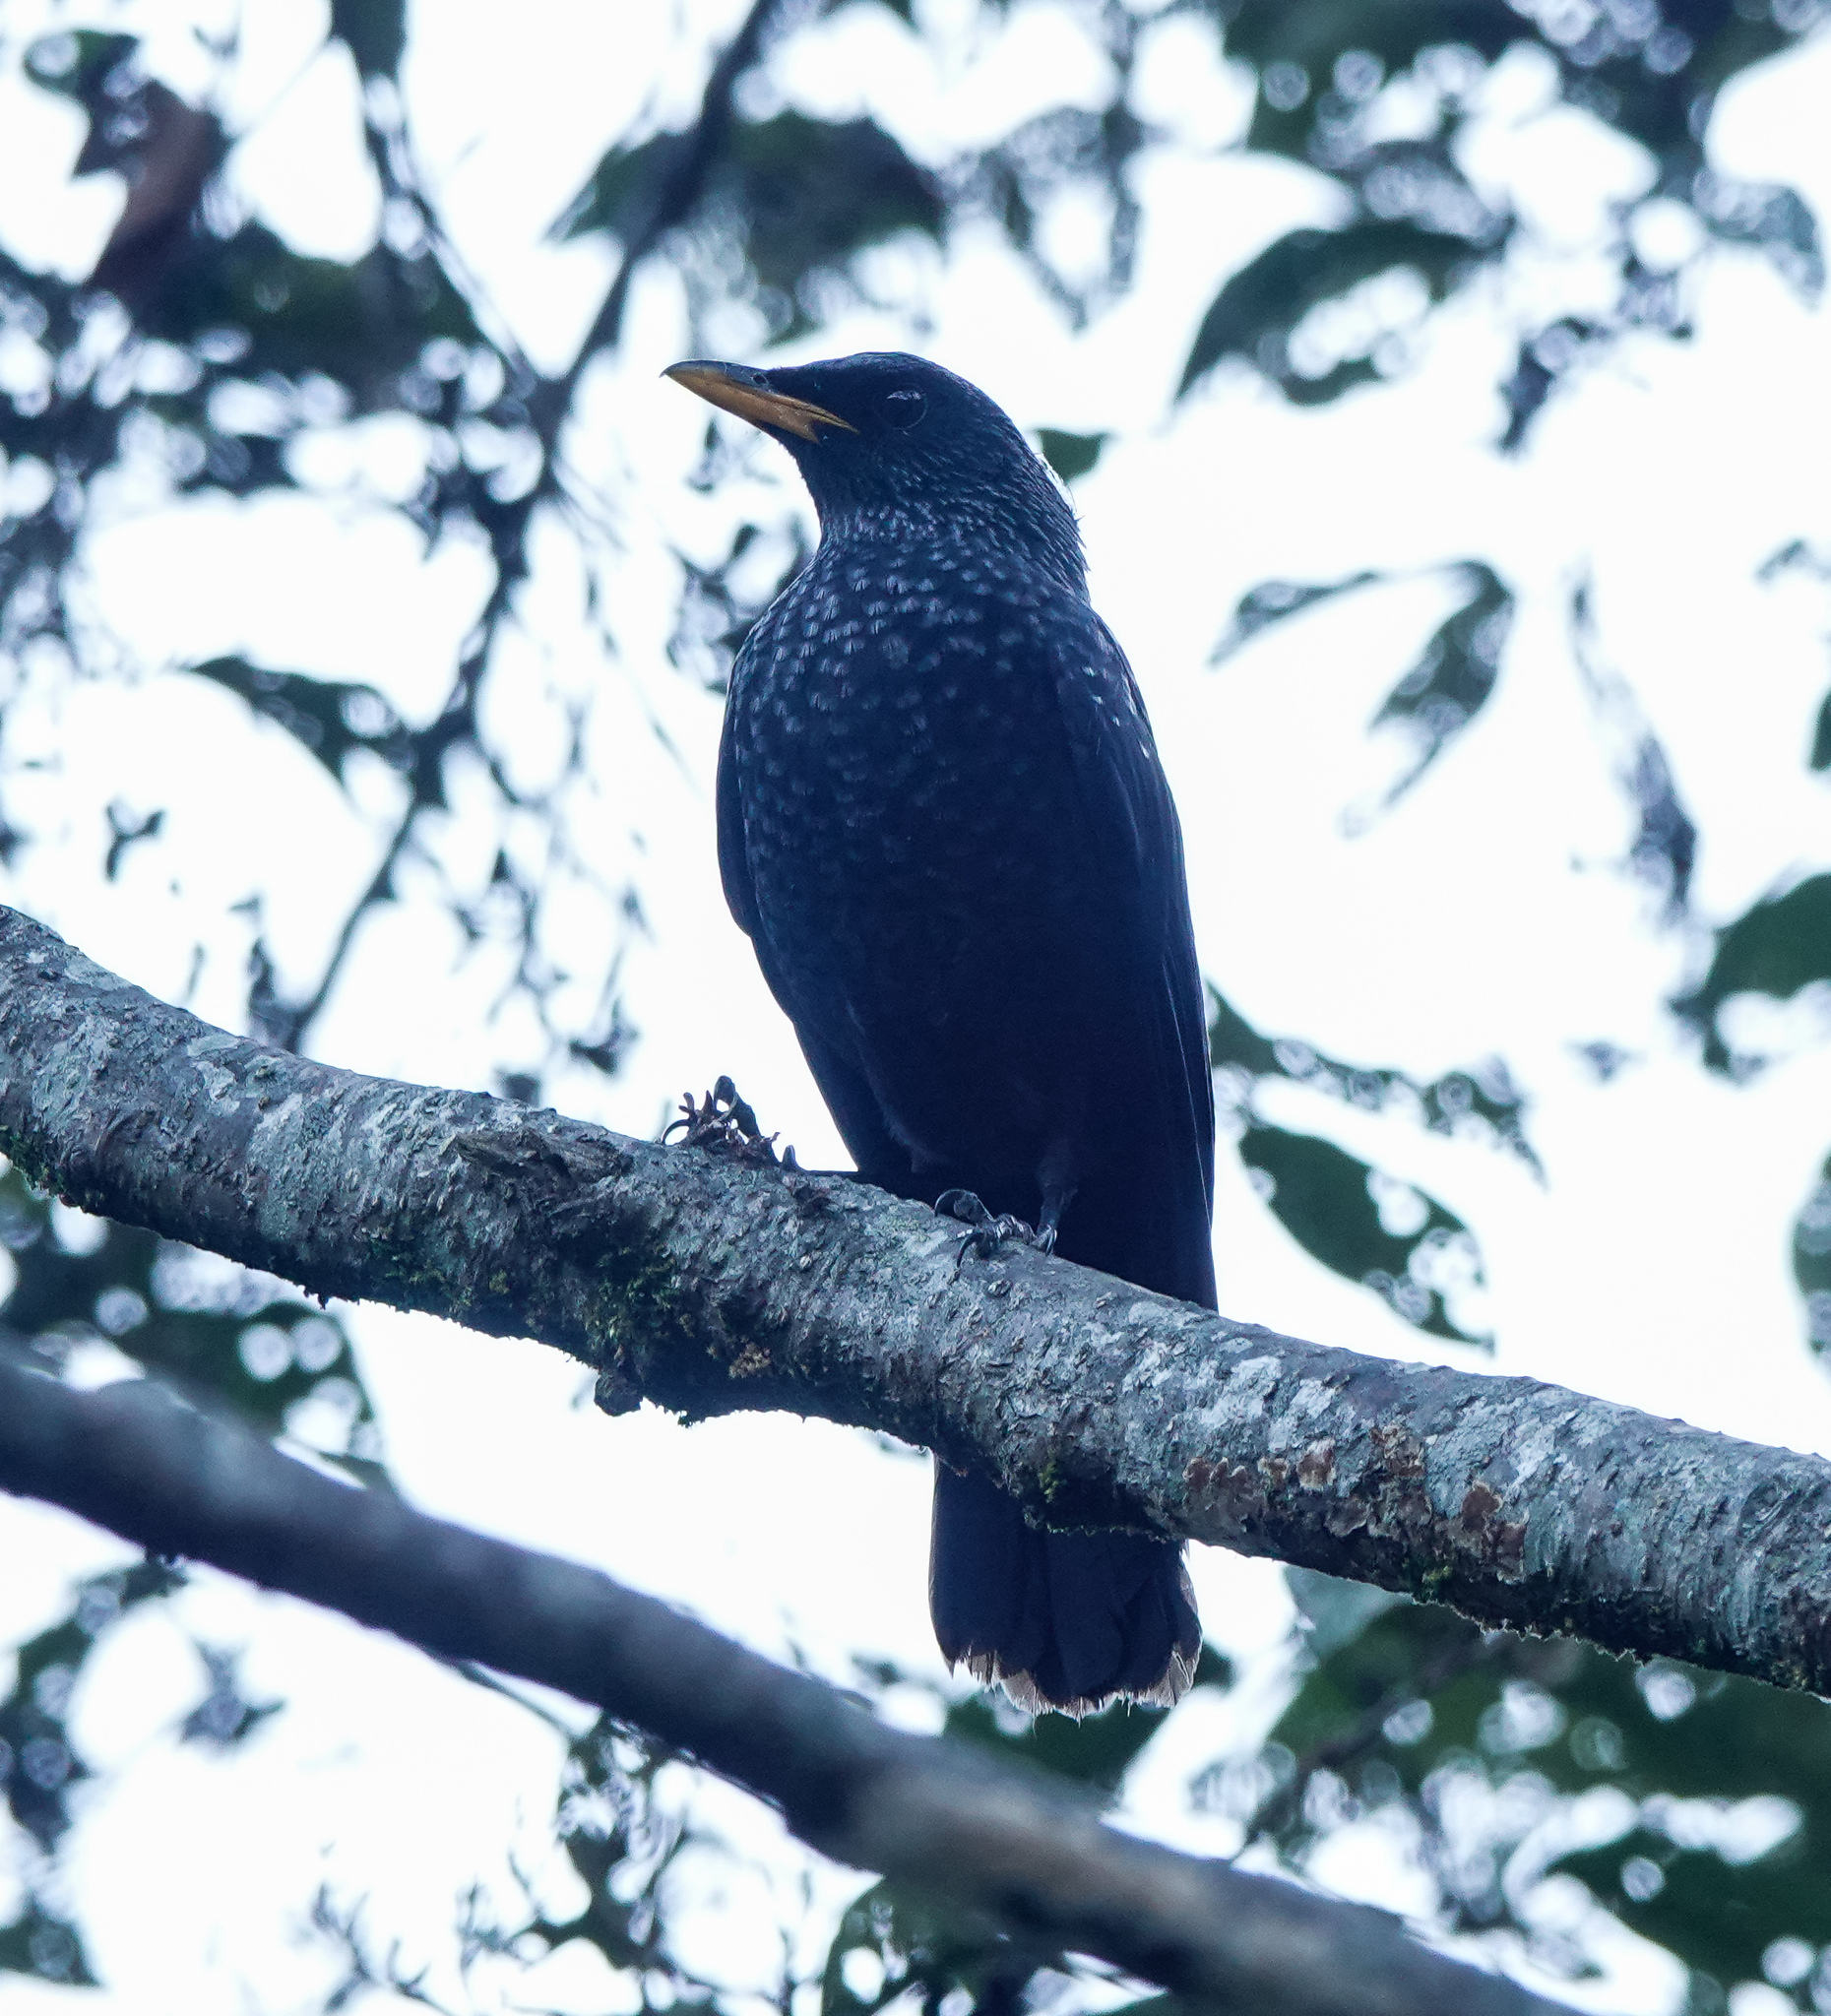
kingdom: Animalia
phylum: Chordata
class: Aves
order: Passeriformes
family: Muscicapidae
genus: Myophonus
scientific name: Myophonus caeruleus
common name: Blue whistling-thrush
